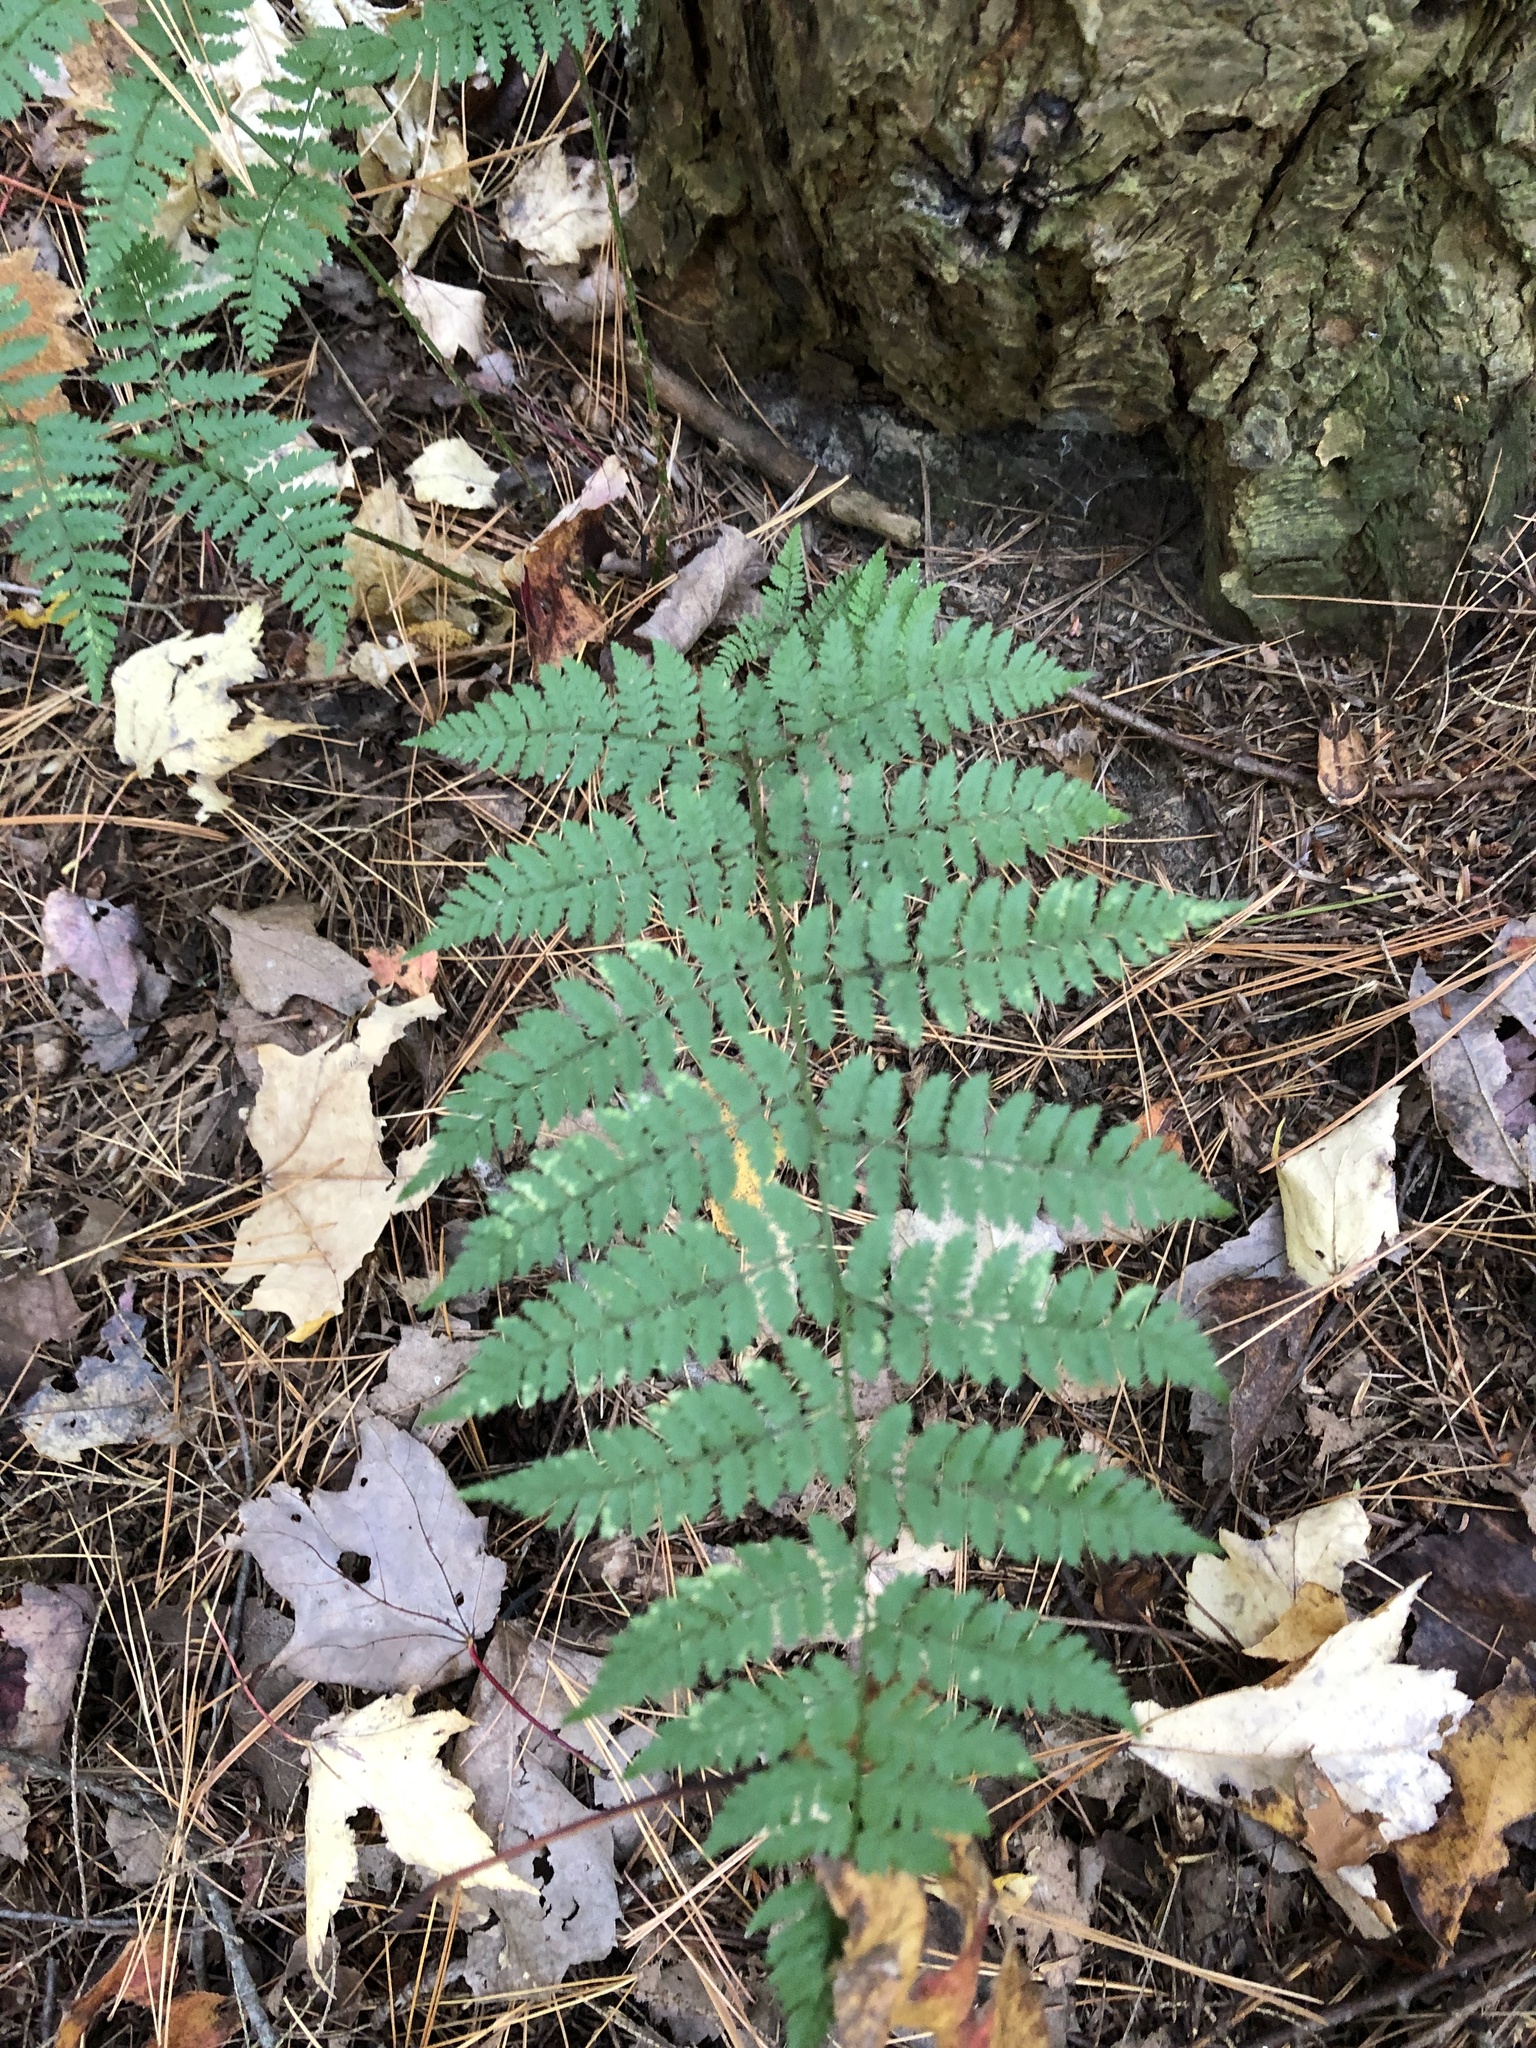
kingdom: Plantae
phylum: Tracheophyta
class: Polypodiopsida
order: Polypodiales
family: Dryopteridaceae
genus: Dryopteris
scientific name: Dryopteris intermedia
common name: Evergreen wood fern
